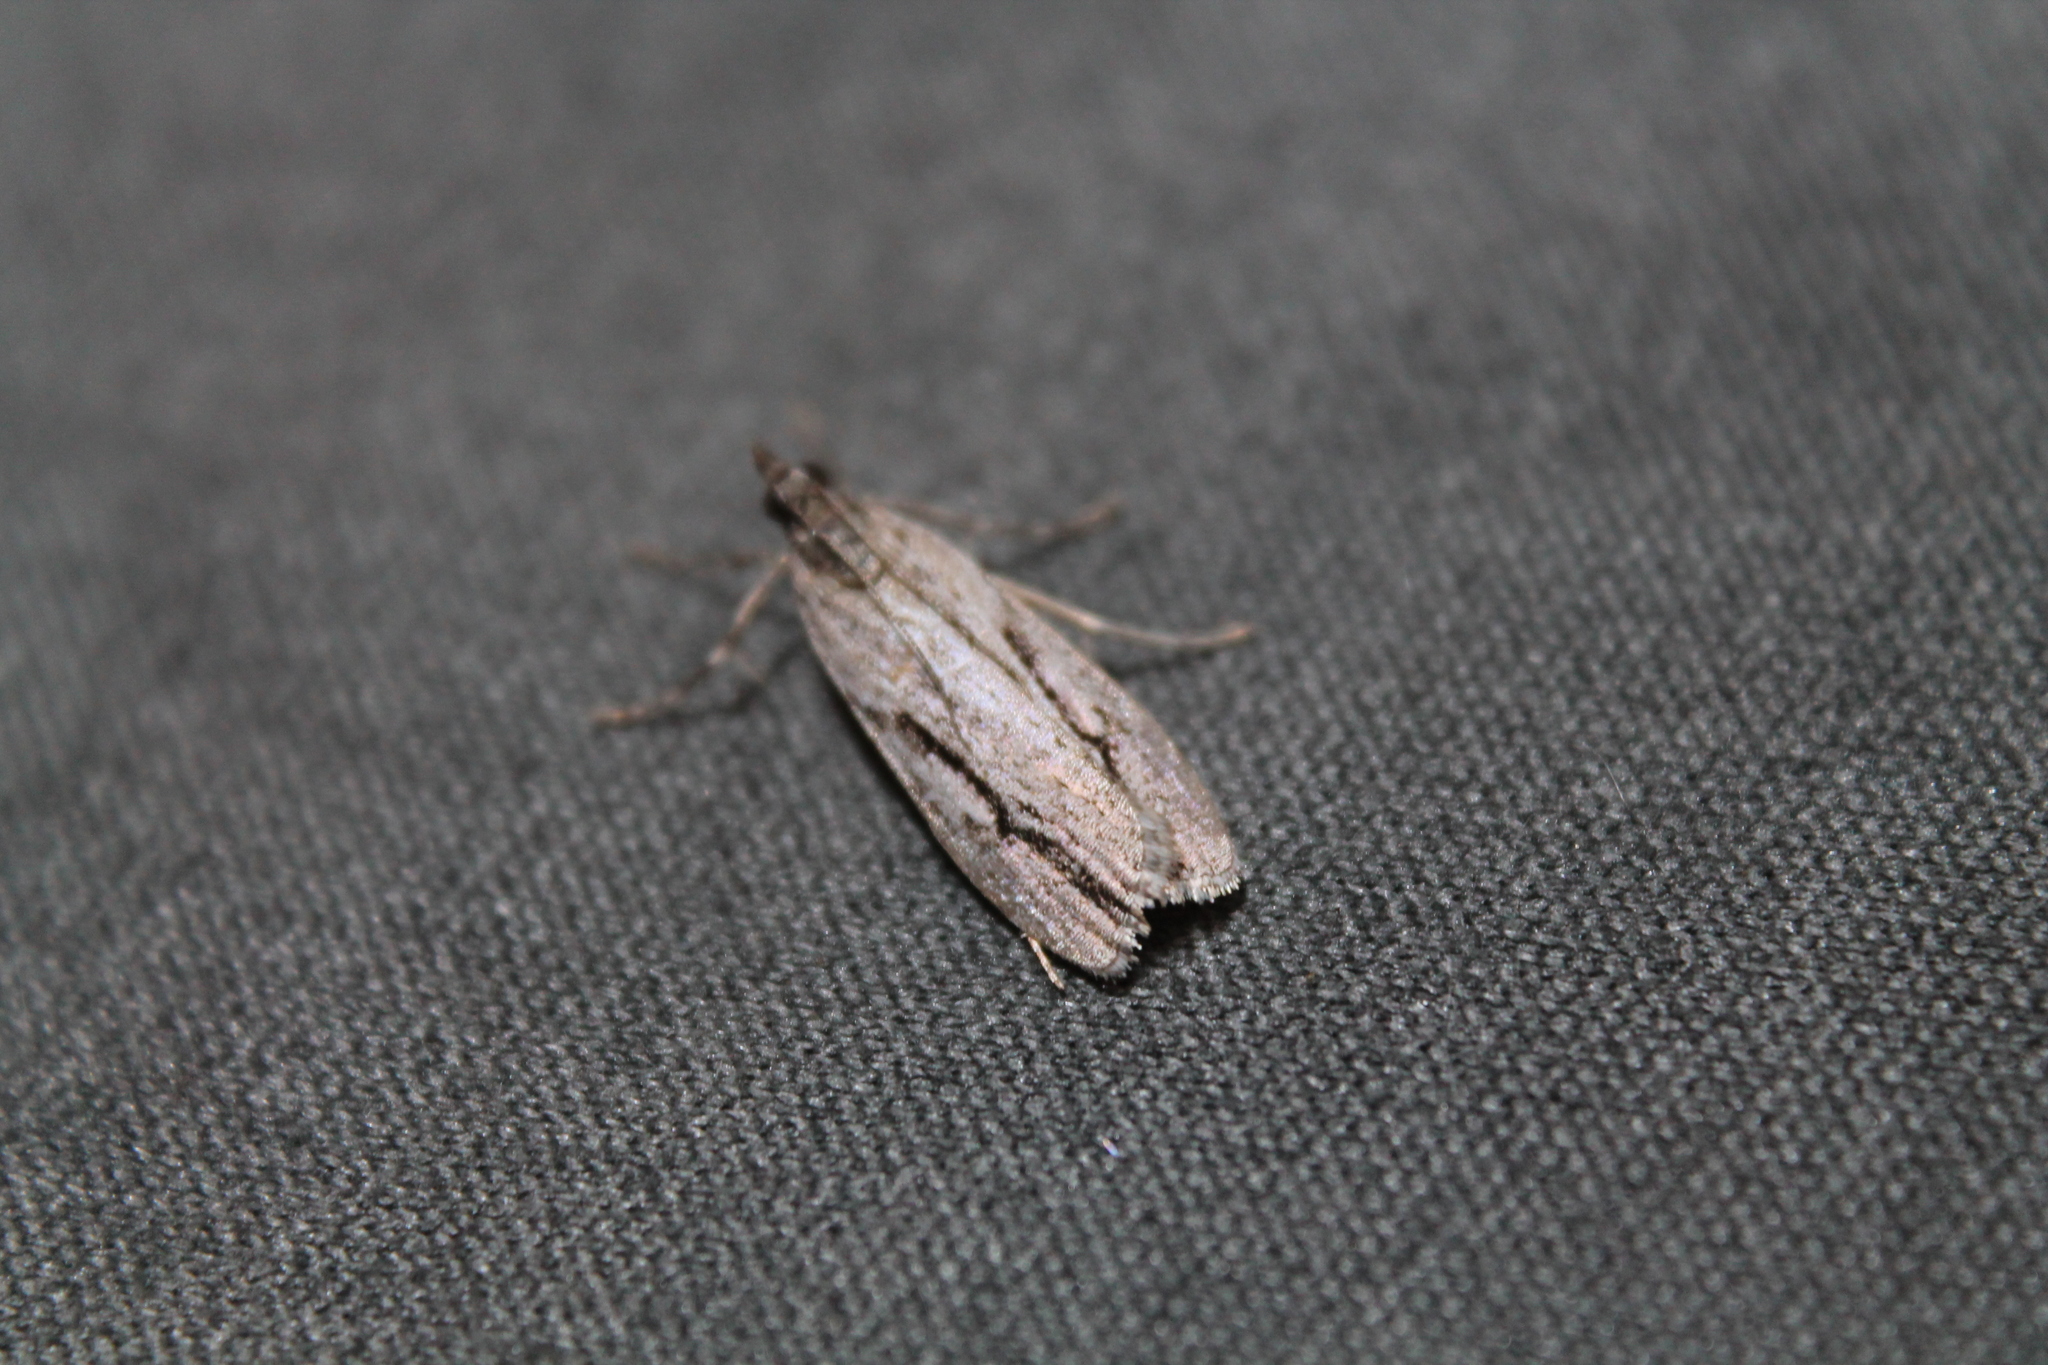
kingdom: Animalia
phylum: Arthropoda
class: Insecta
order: Lepidoptera
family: Crambidae
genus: Eudonia
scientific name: Eudonia bisinualis
